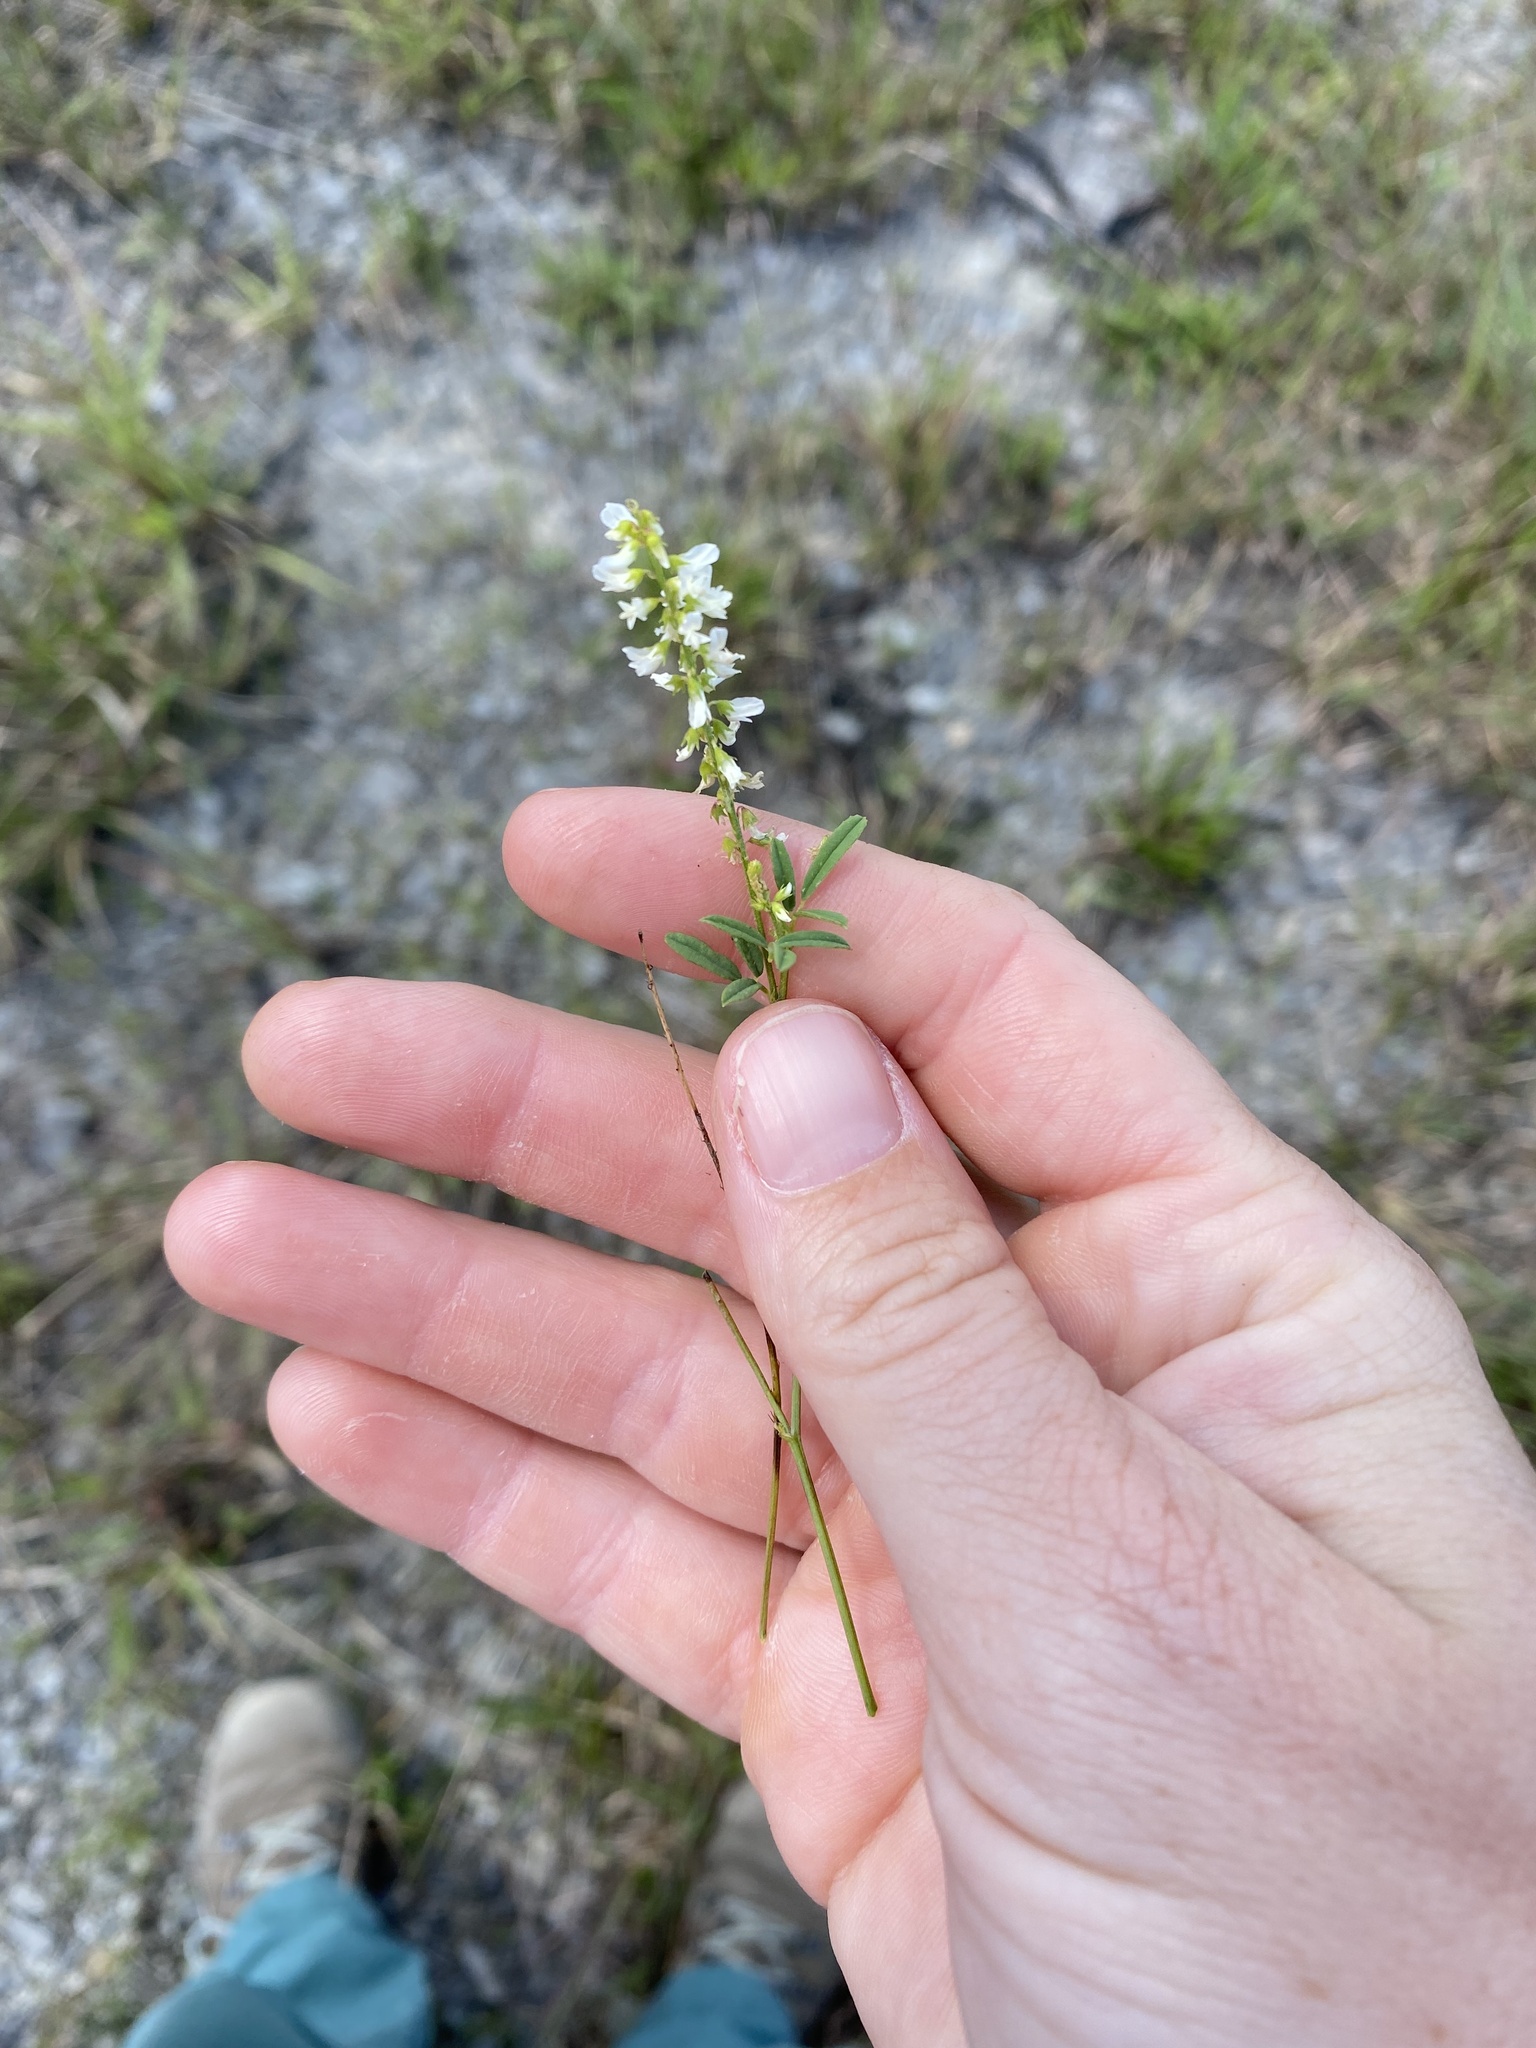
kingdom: Plantae
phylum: Tracheophyta
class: Magnoliopsida
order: Fabales
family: Fabaceae
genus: Melilotus
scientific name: Melilotus albus
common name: White melilot
